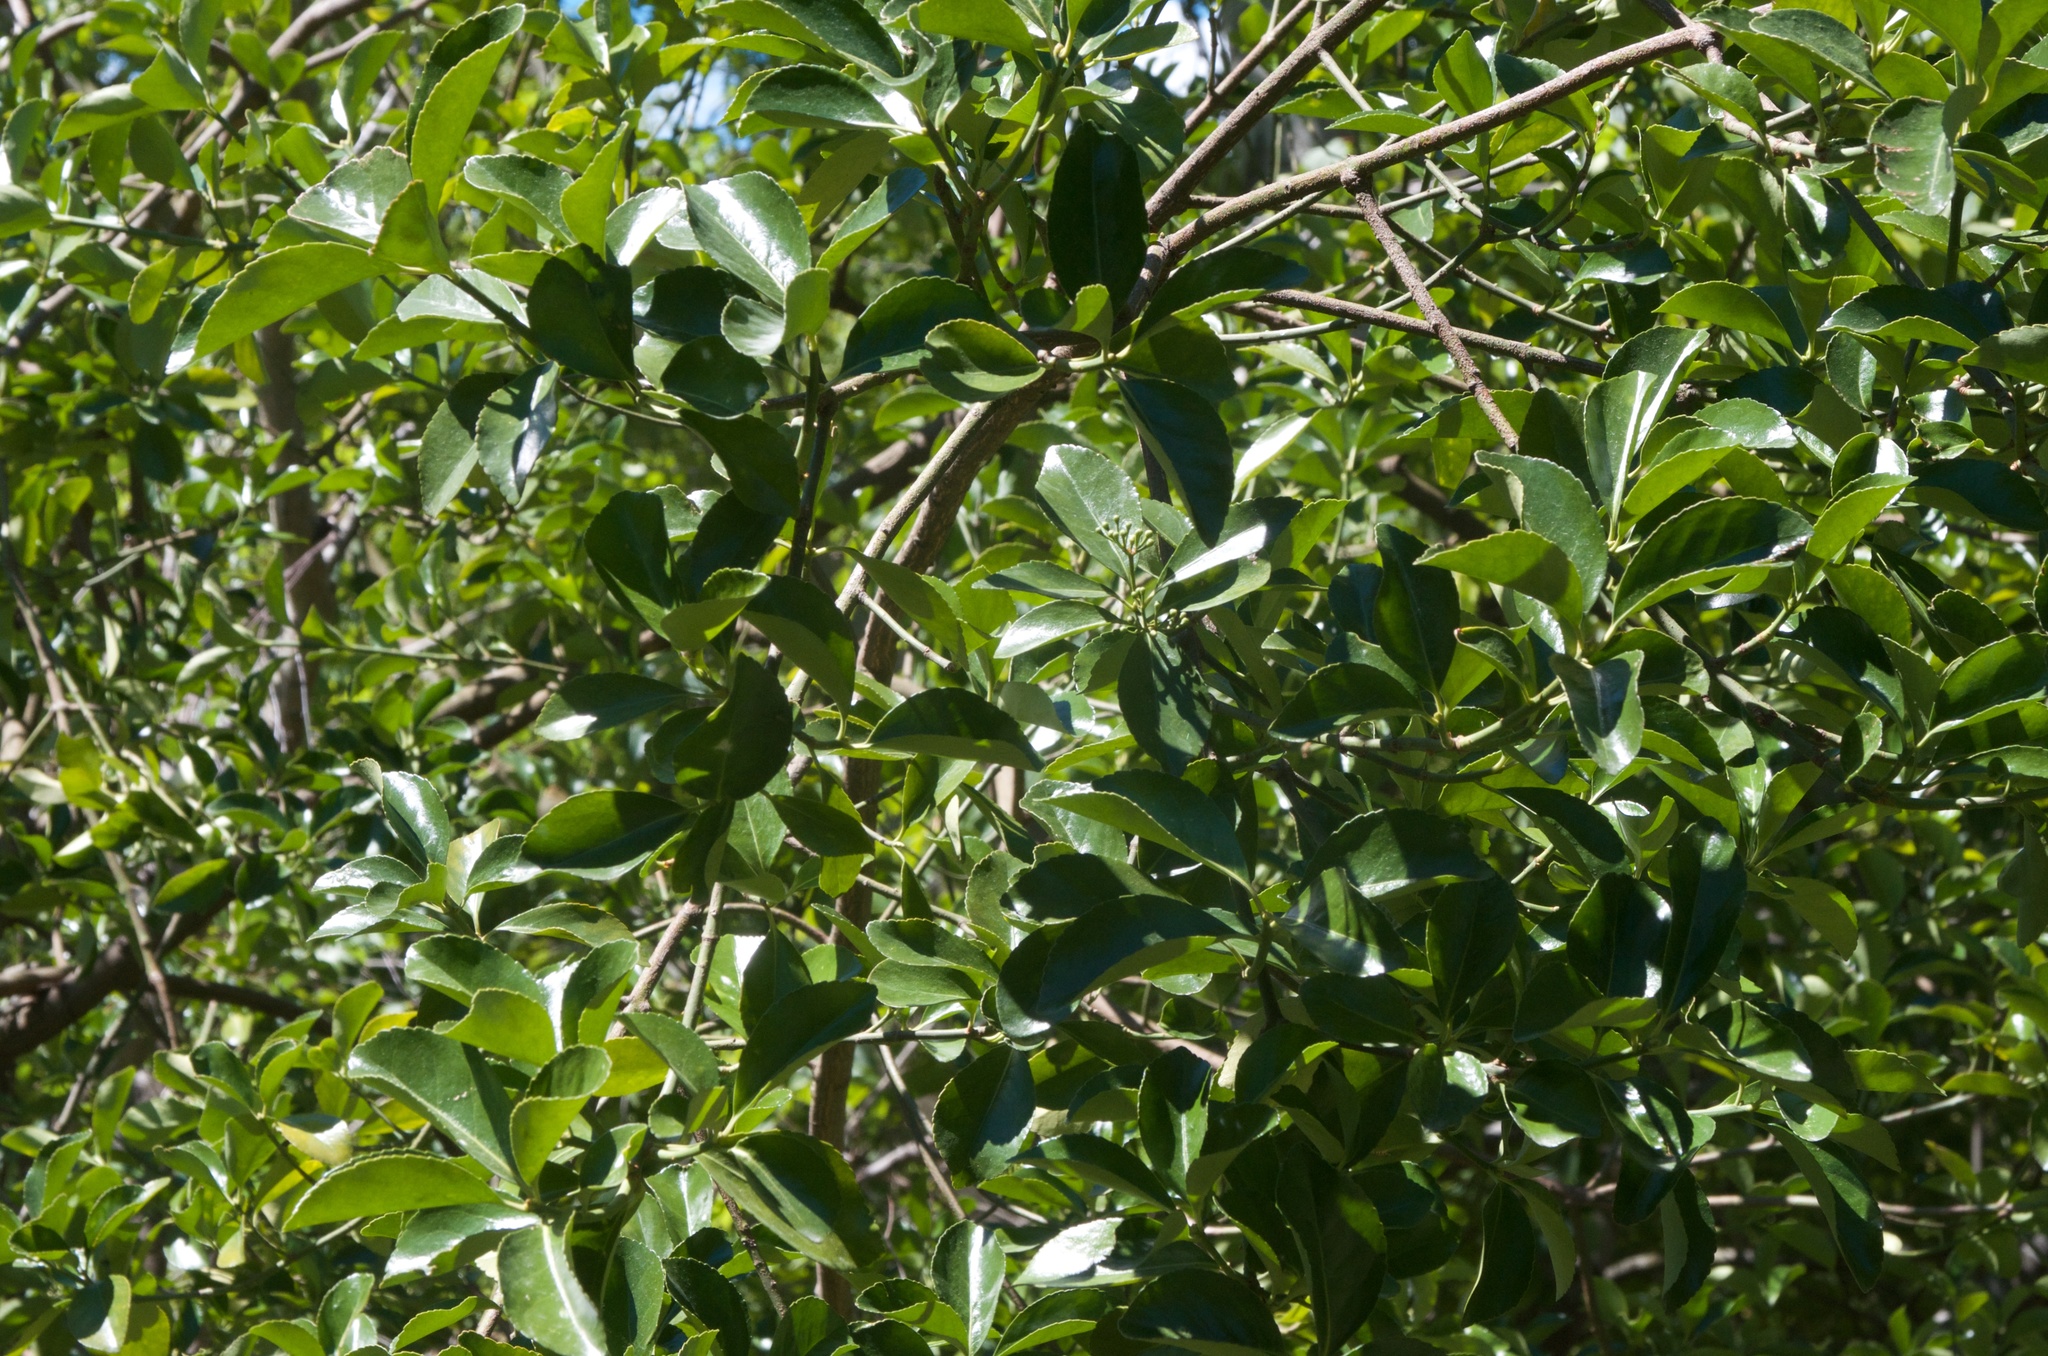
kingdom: Plantae
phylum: Tracheophyta
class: Magnoliopsida
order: Celastrales
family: Celastraceae
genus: Euonymus
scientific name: Euonymus japonicus
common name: Japanese spindletree
